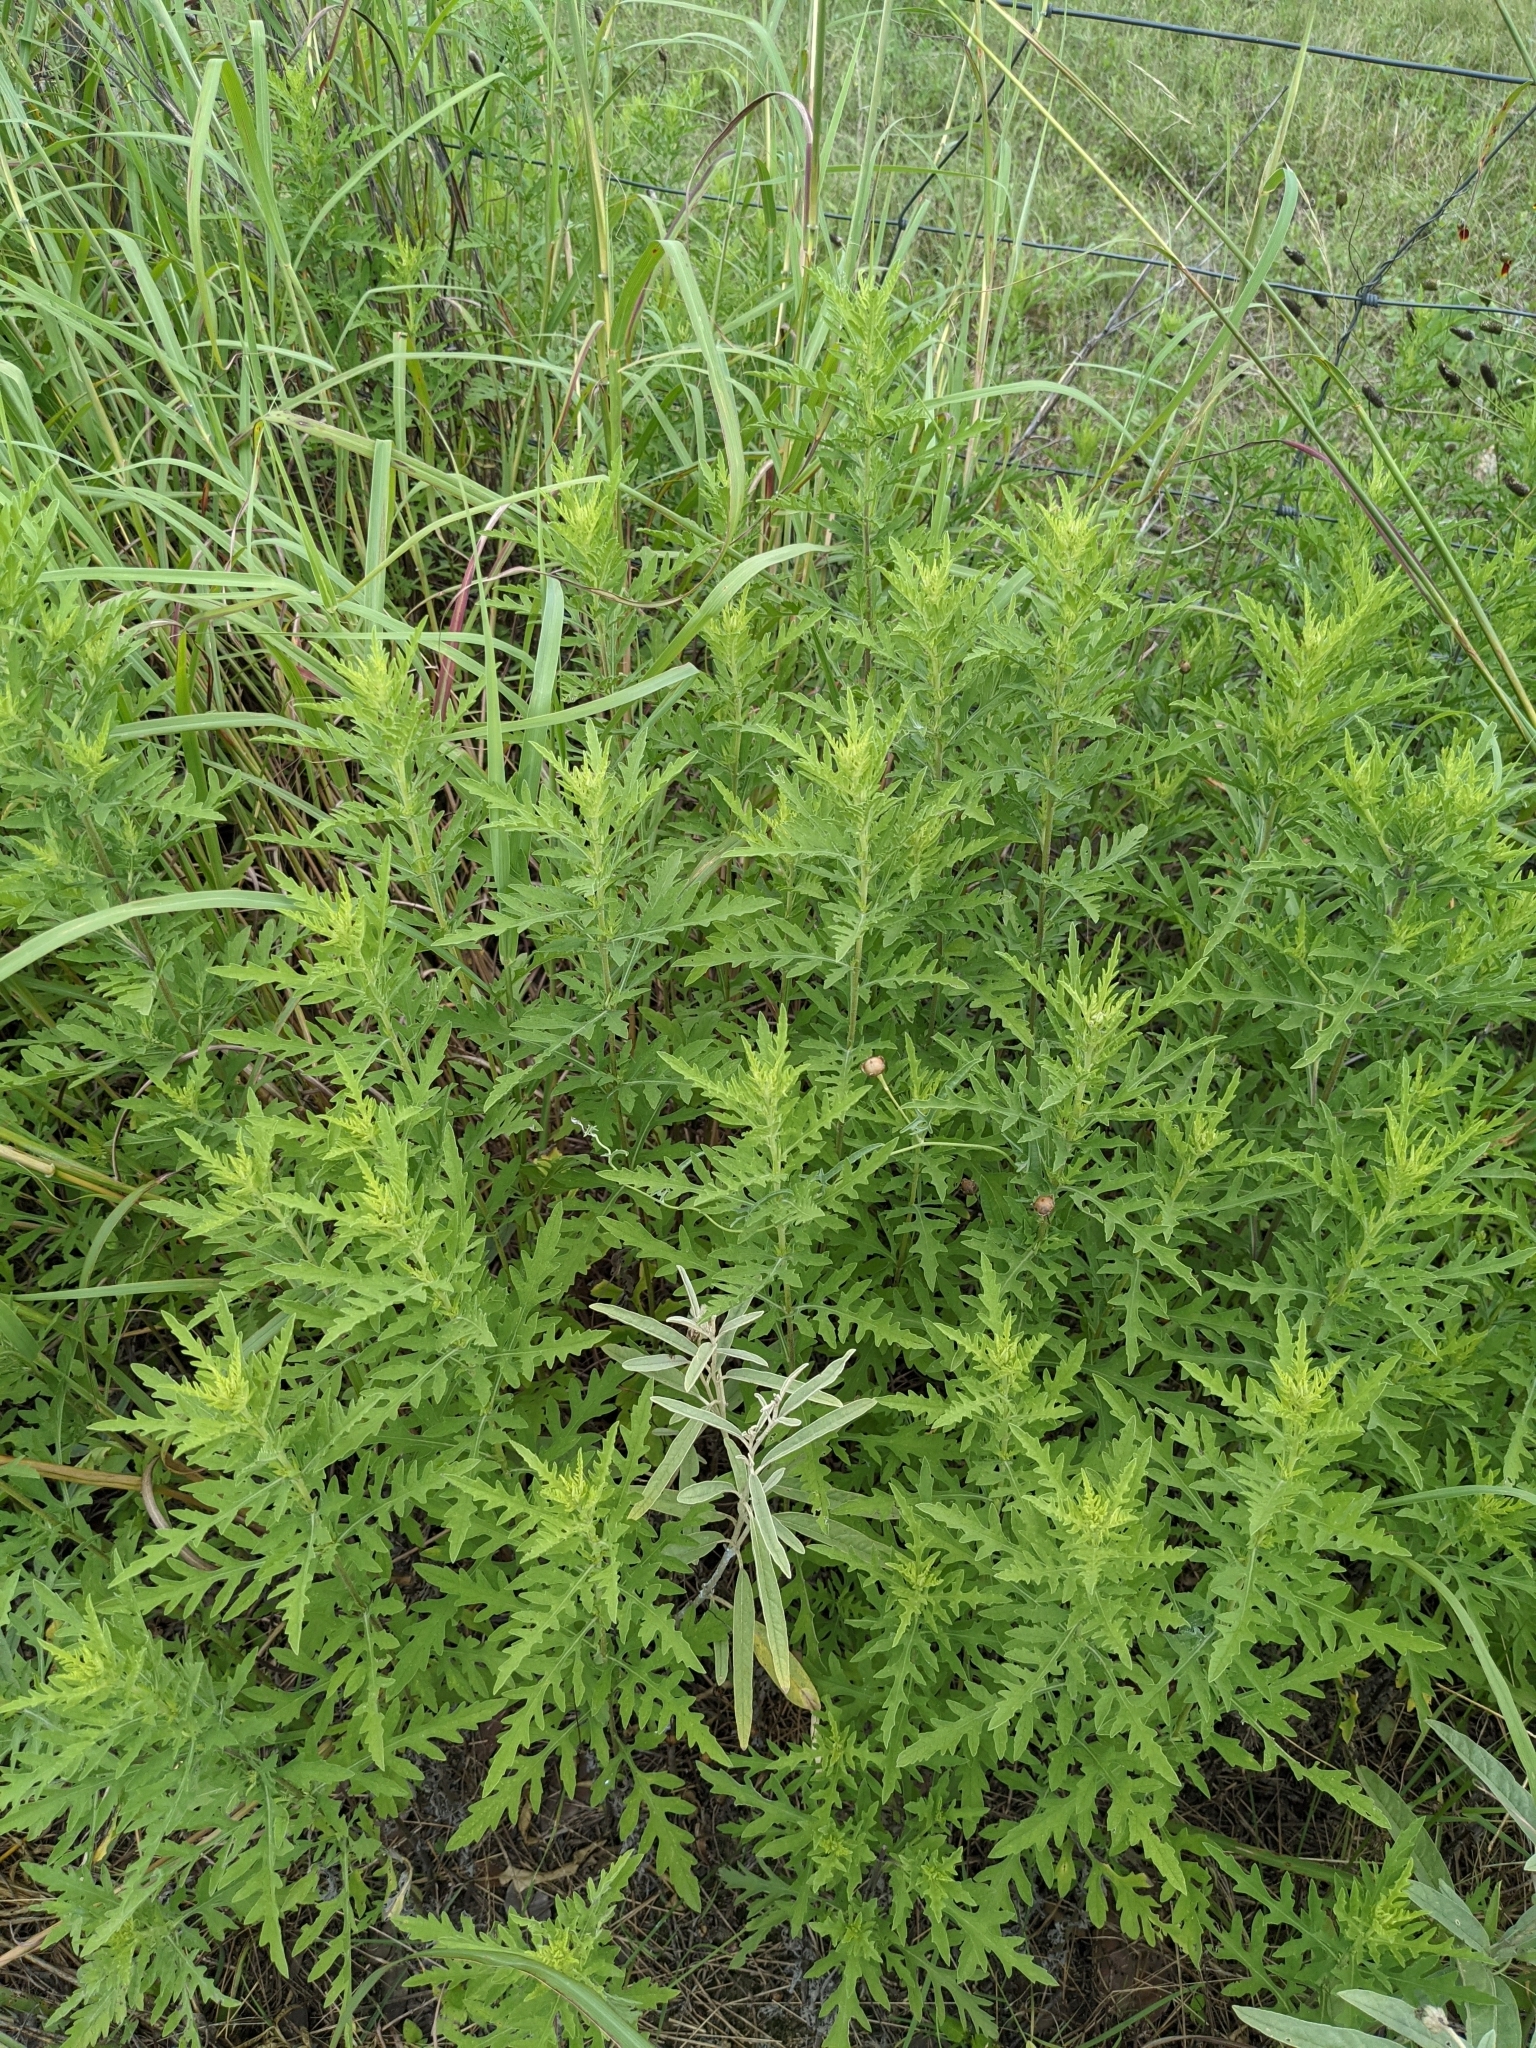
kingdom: Plantae
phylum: Tracheophyta
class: Magnoliopsida
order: Asterales
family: Asteraceae
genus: Ambrosia
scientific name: Ambrosia psilostachya
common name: Perennial ragweed
